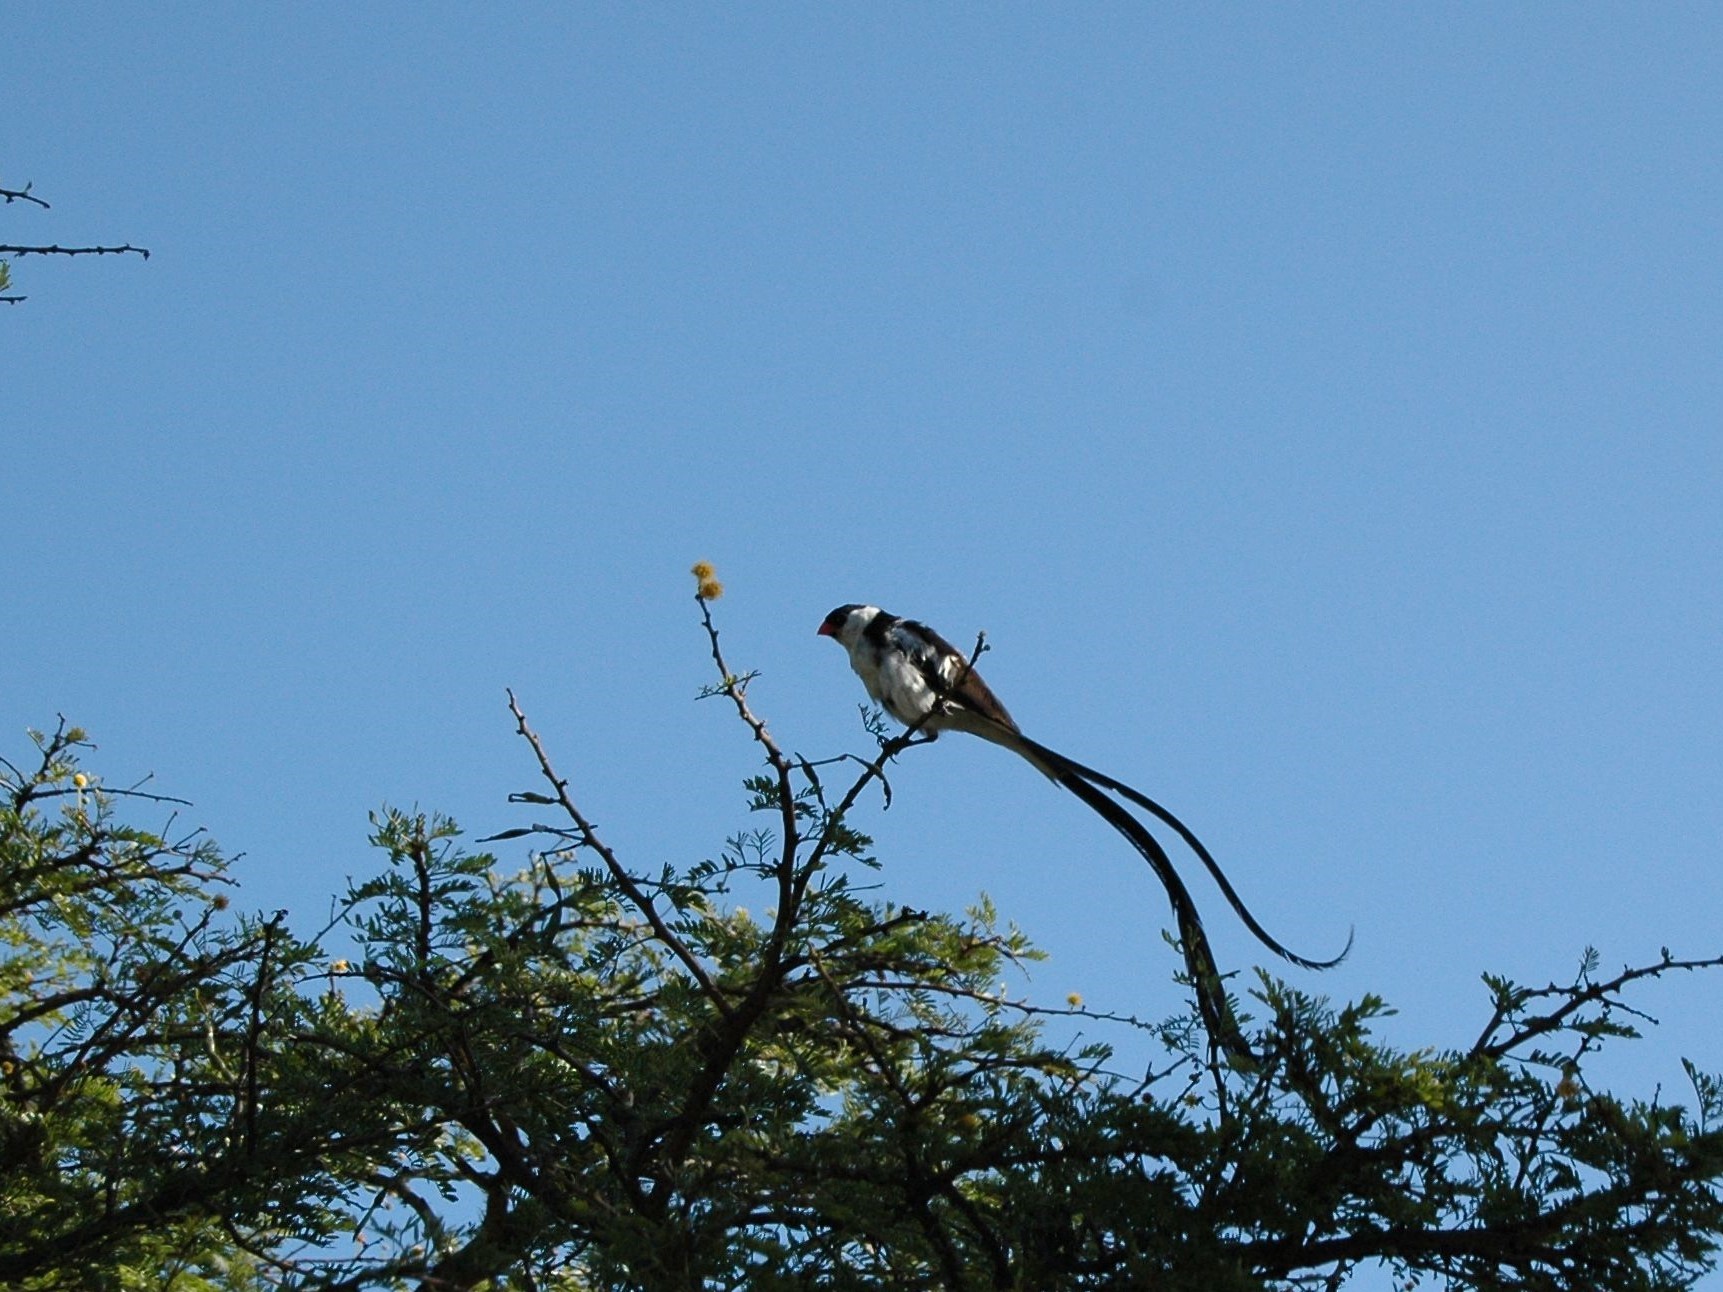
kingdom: Animalia
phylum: Chordata
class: Aves
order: Passeriformes
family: Viduidae
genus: Vidua
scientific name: Vidua macroura
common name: Pin-tailed whydah
